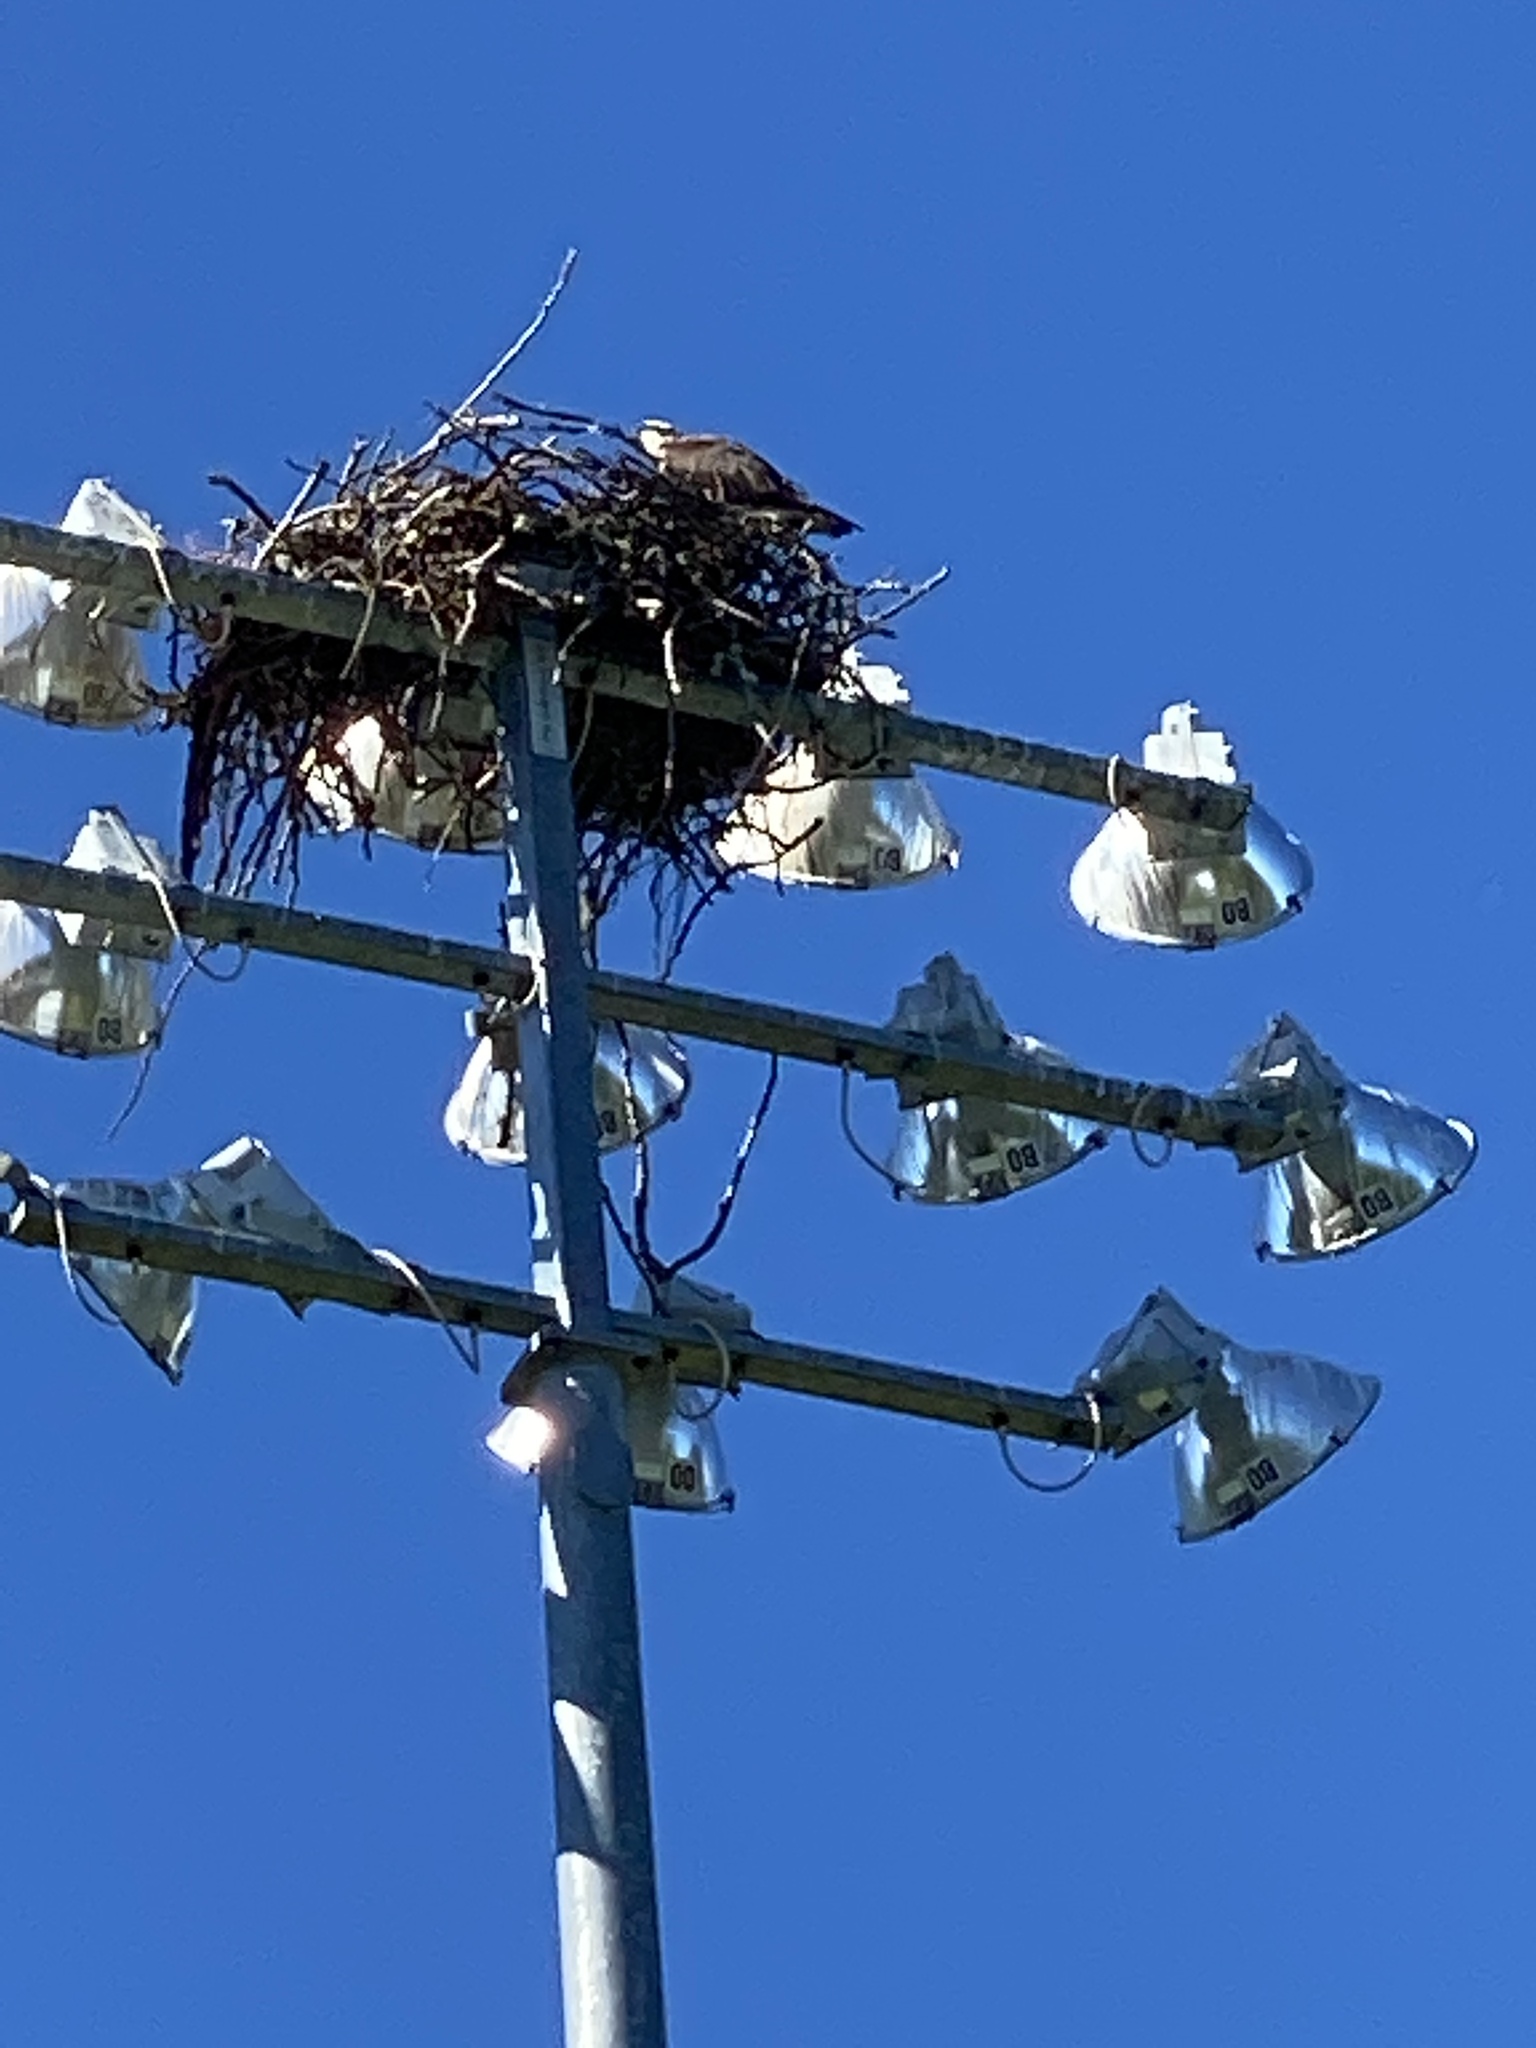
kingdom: Animalia
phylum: Chordata
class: Aves
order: Accipitriformes
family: Pandionidae
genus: Pandion
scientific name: Pandion haliaetus
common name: Osprey
